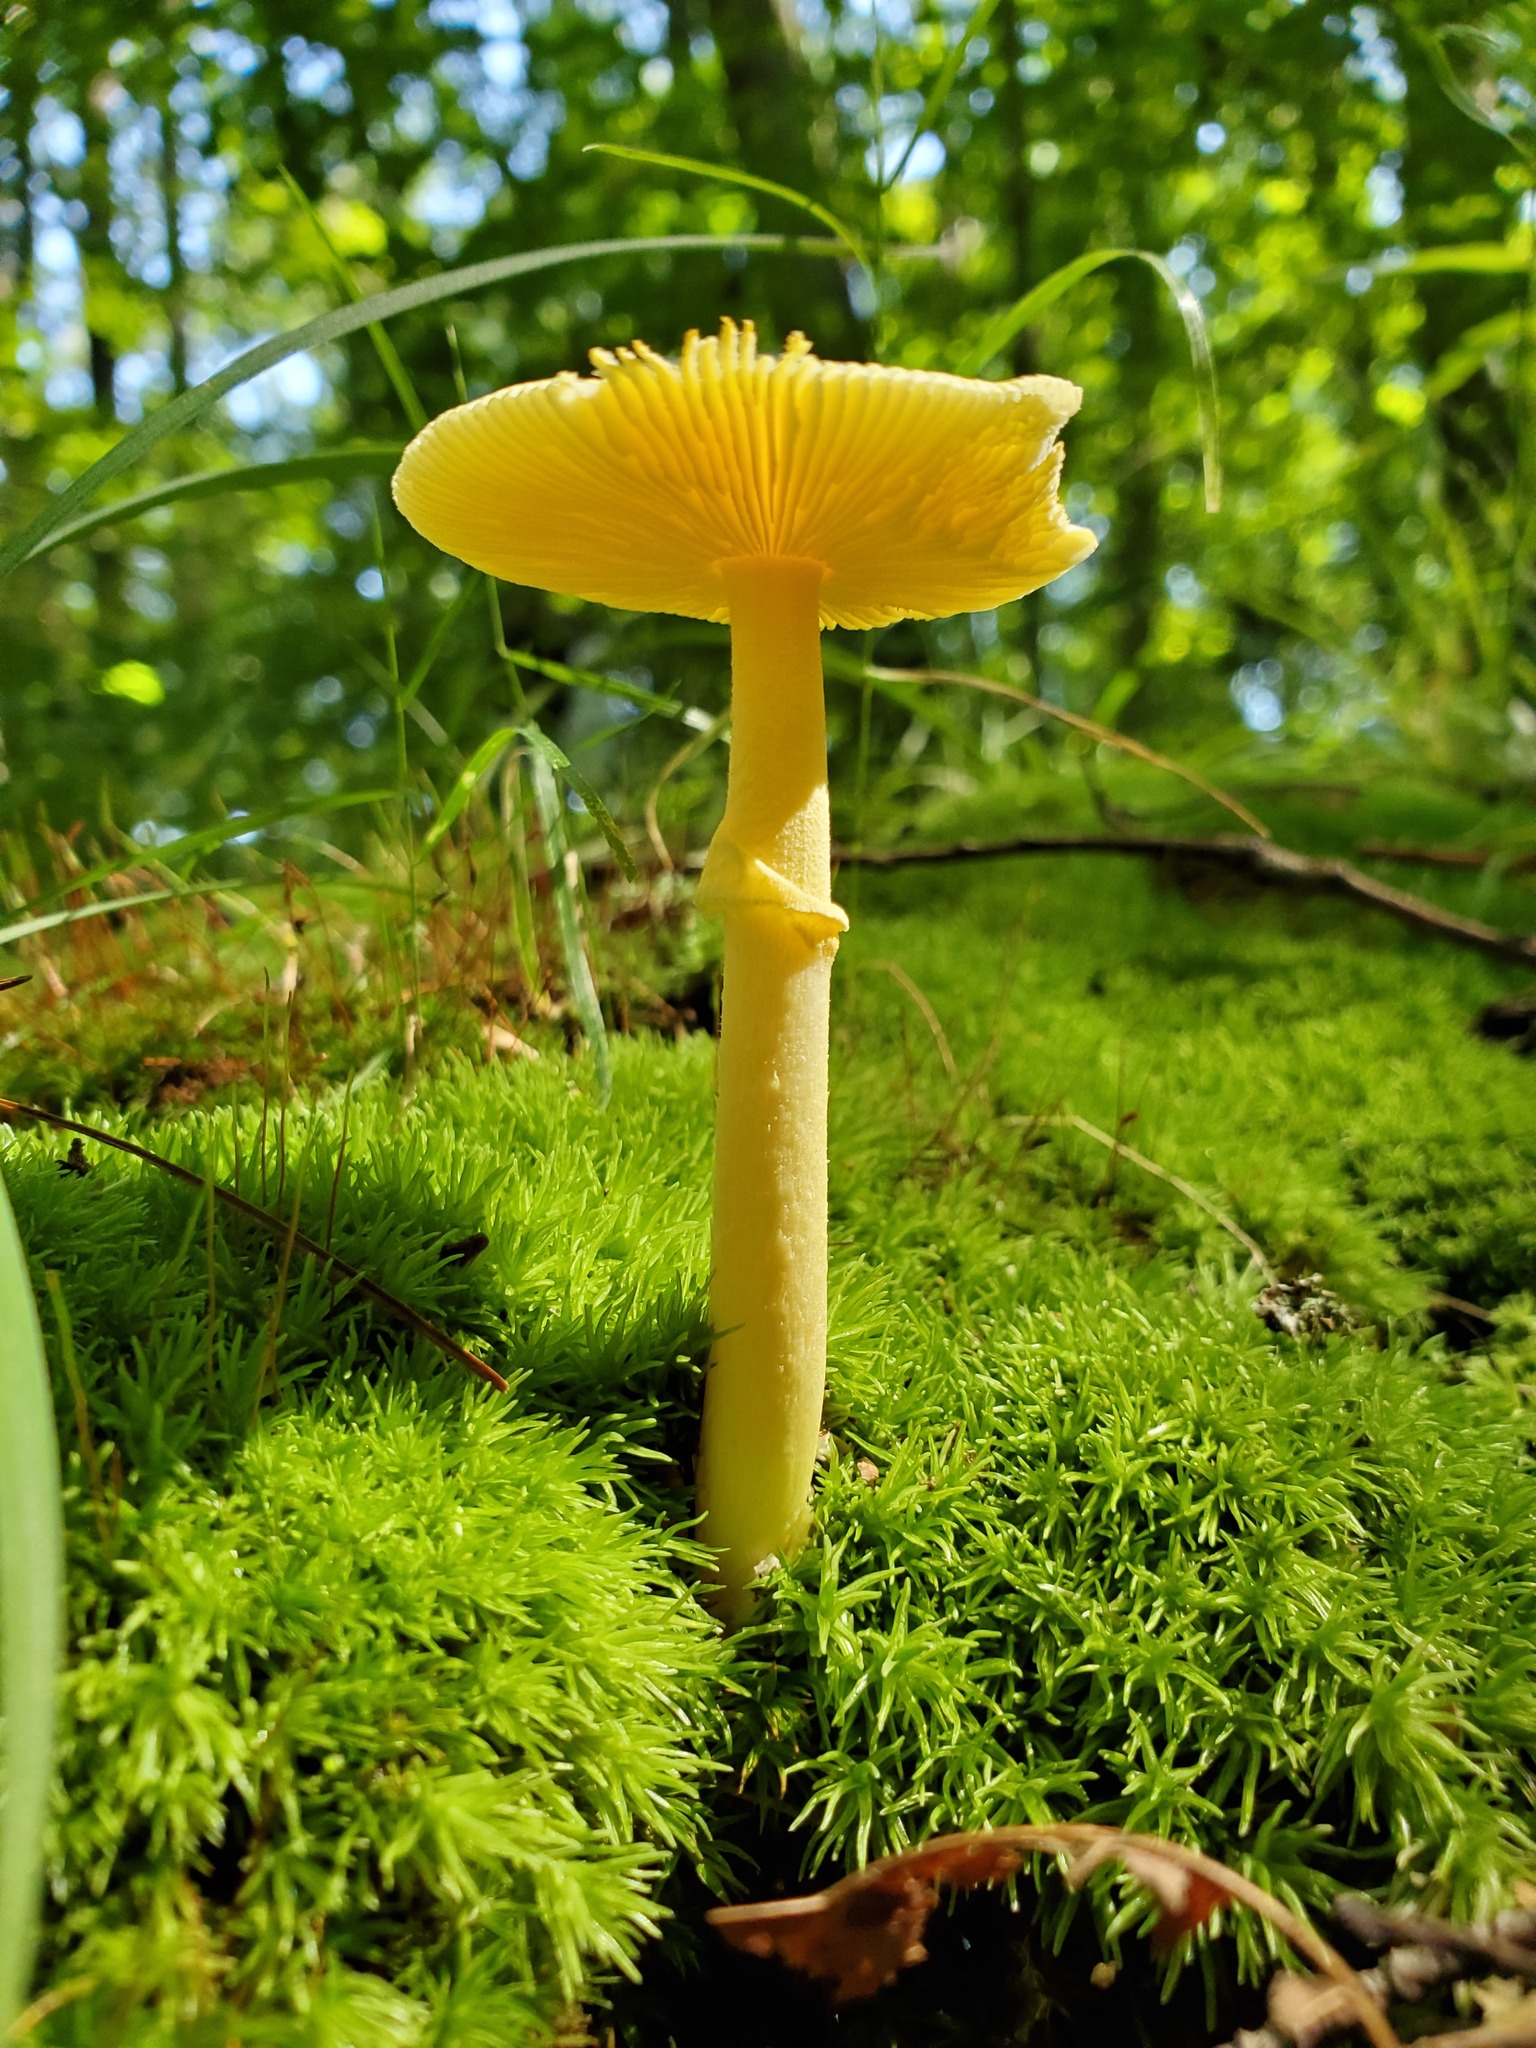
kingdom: Fungi
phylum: Basidiomycota
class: Agaricomycetes
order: Agaricales
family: Amanitaceae
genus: Amanita
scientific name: Amanita flavoconia
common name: Yellow patches
